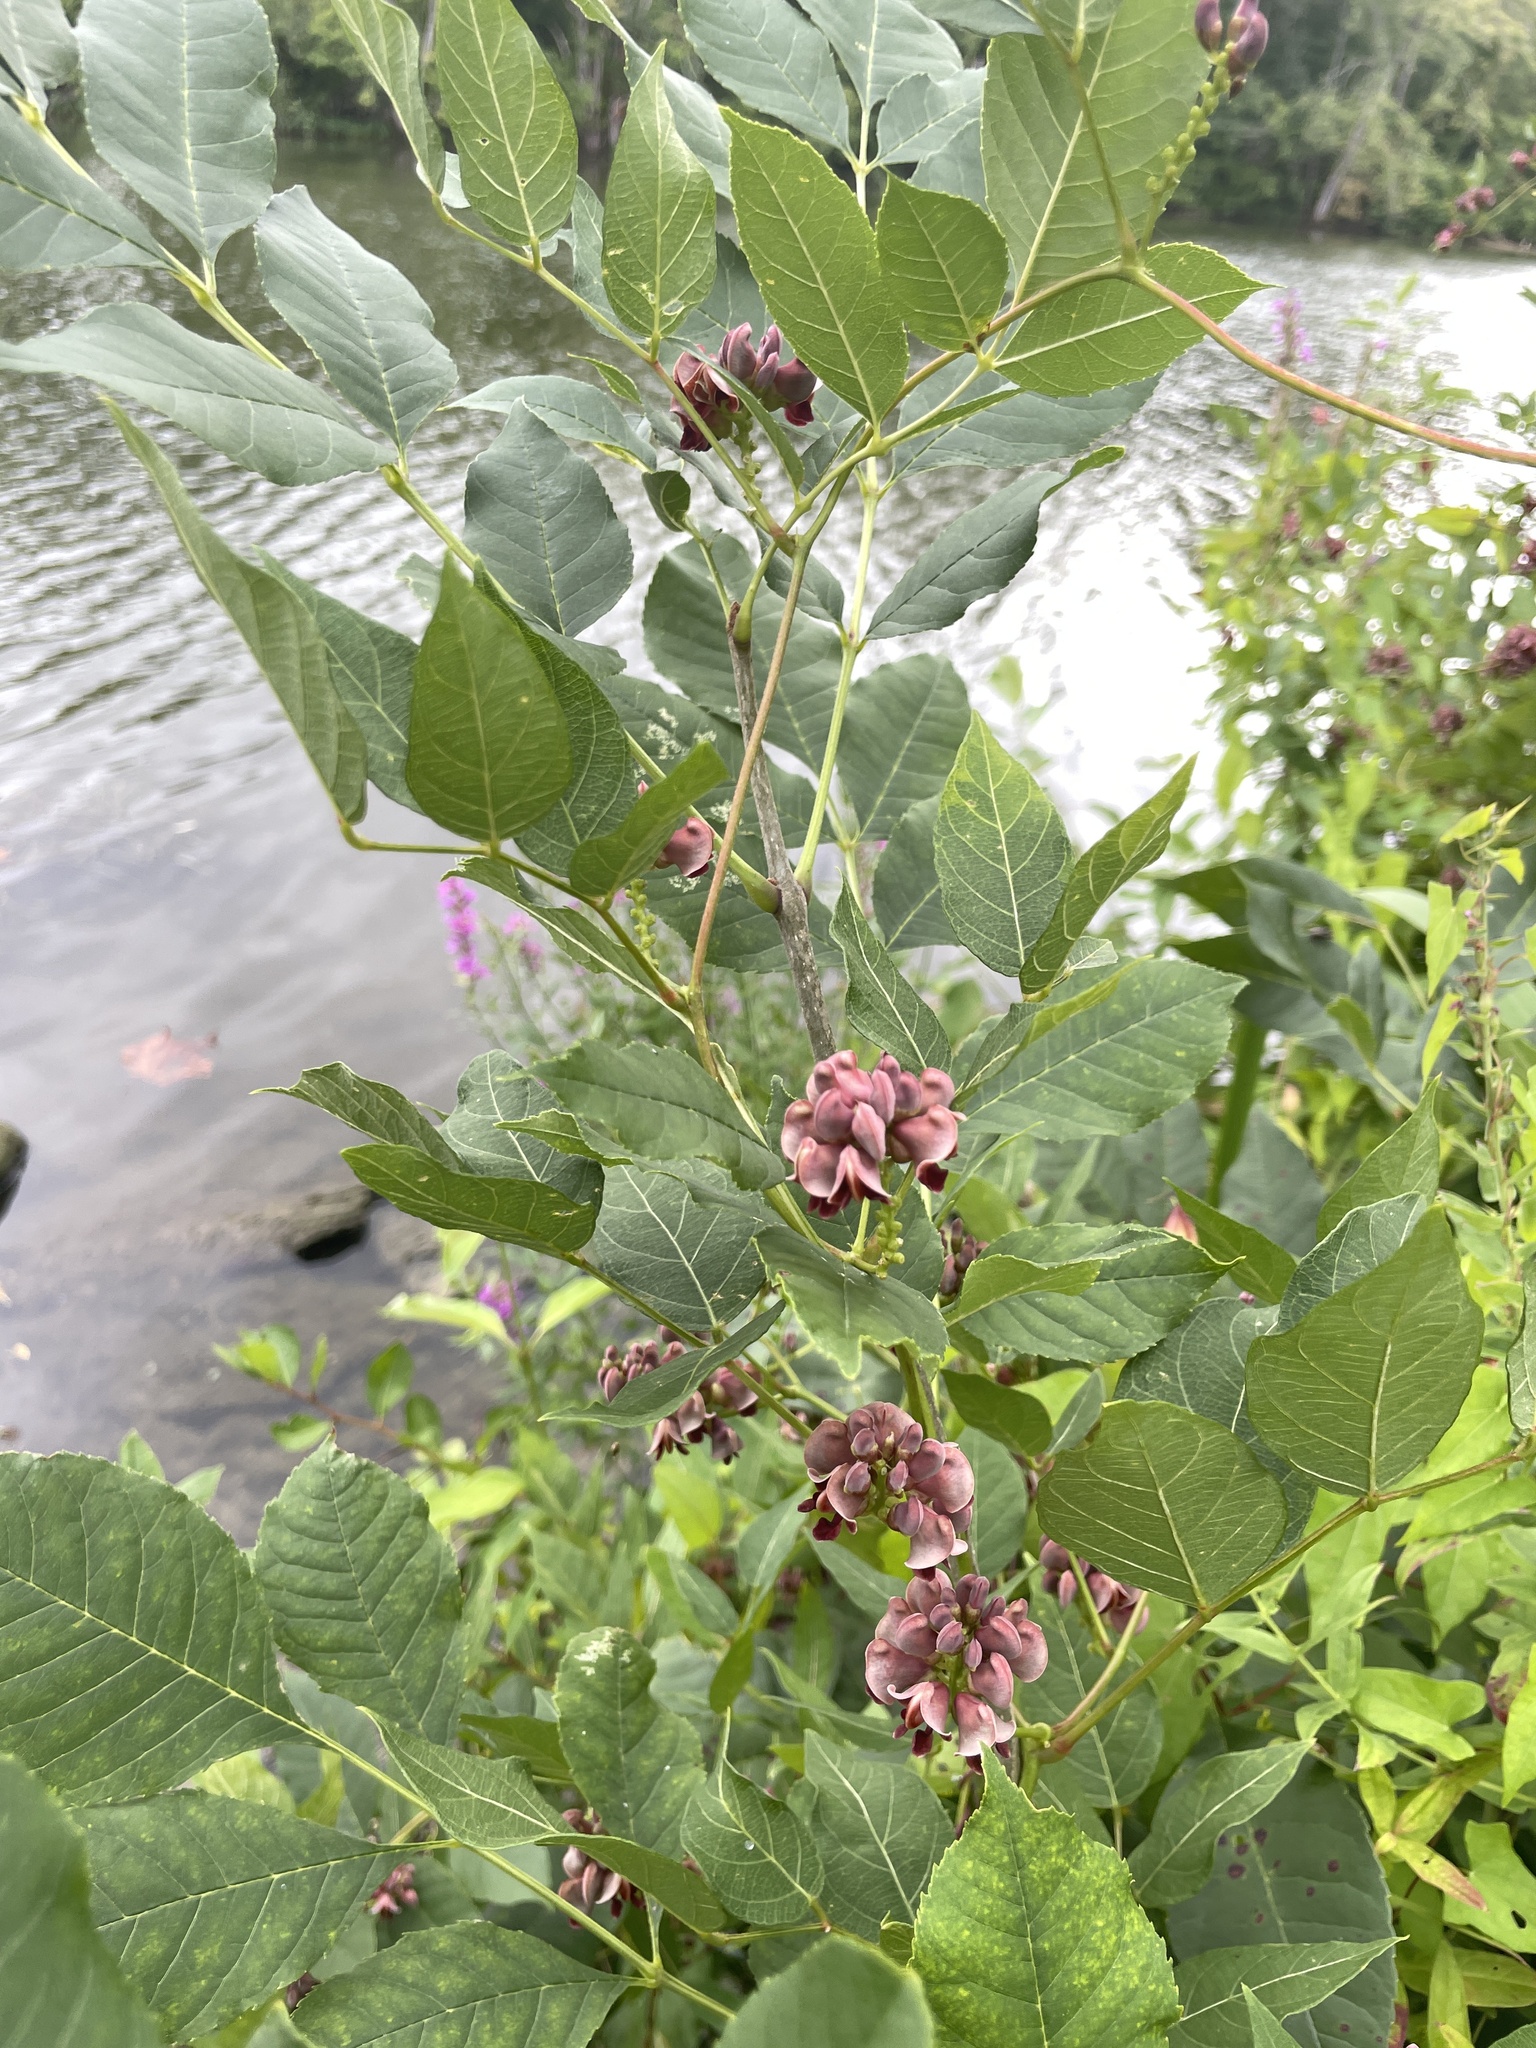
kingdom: Plantae
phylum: Tracheophyta
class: Magnoliopsida
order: Fabales
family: Fabaceae
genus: Apios
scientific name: Apios americana
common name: American potato-bean
